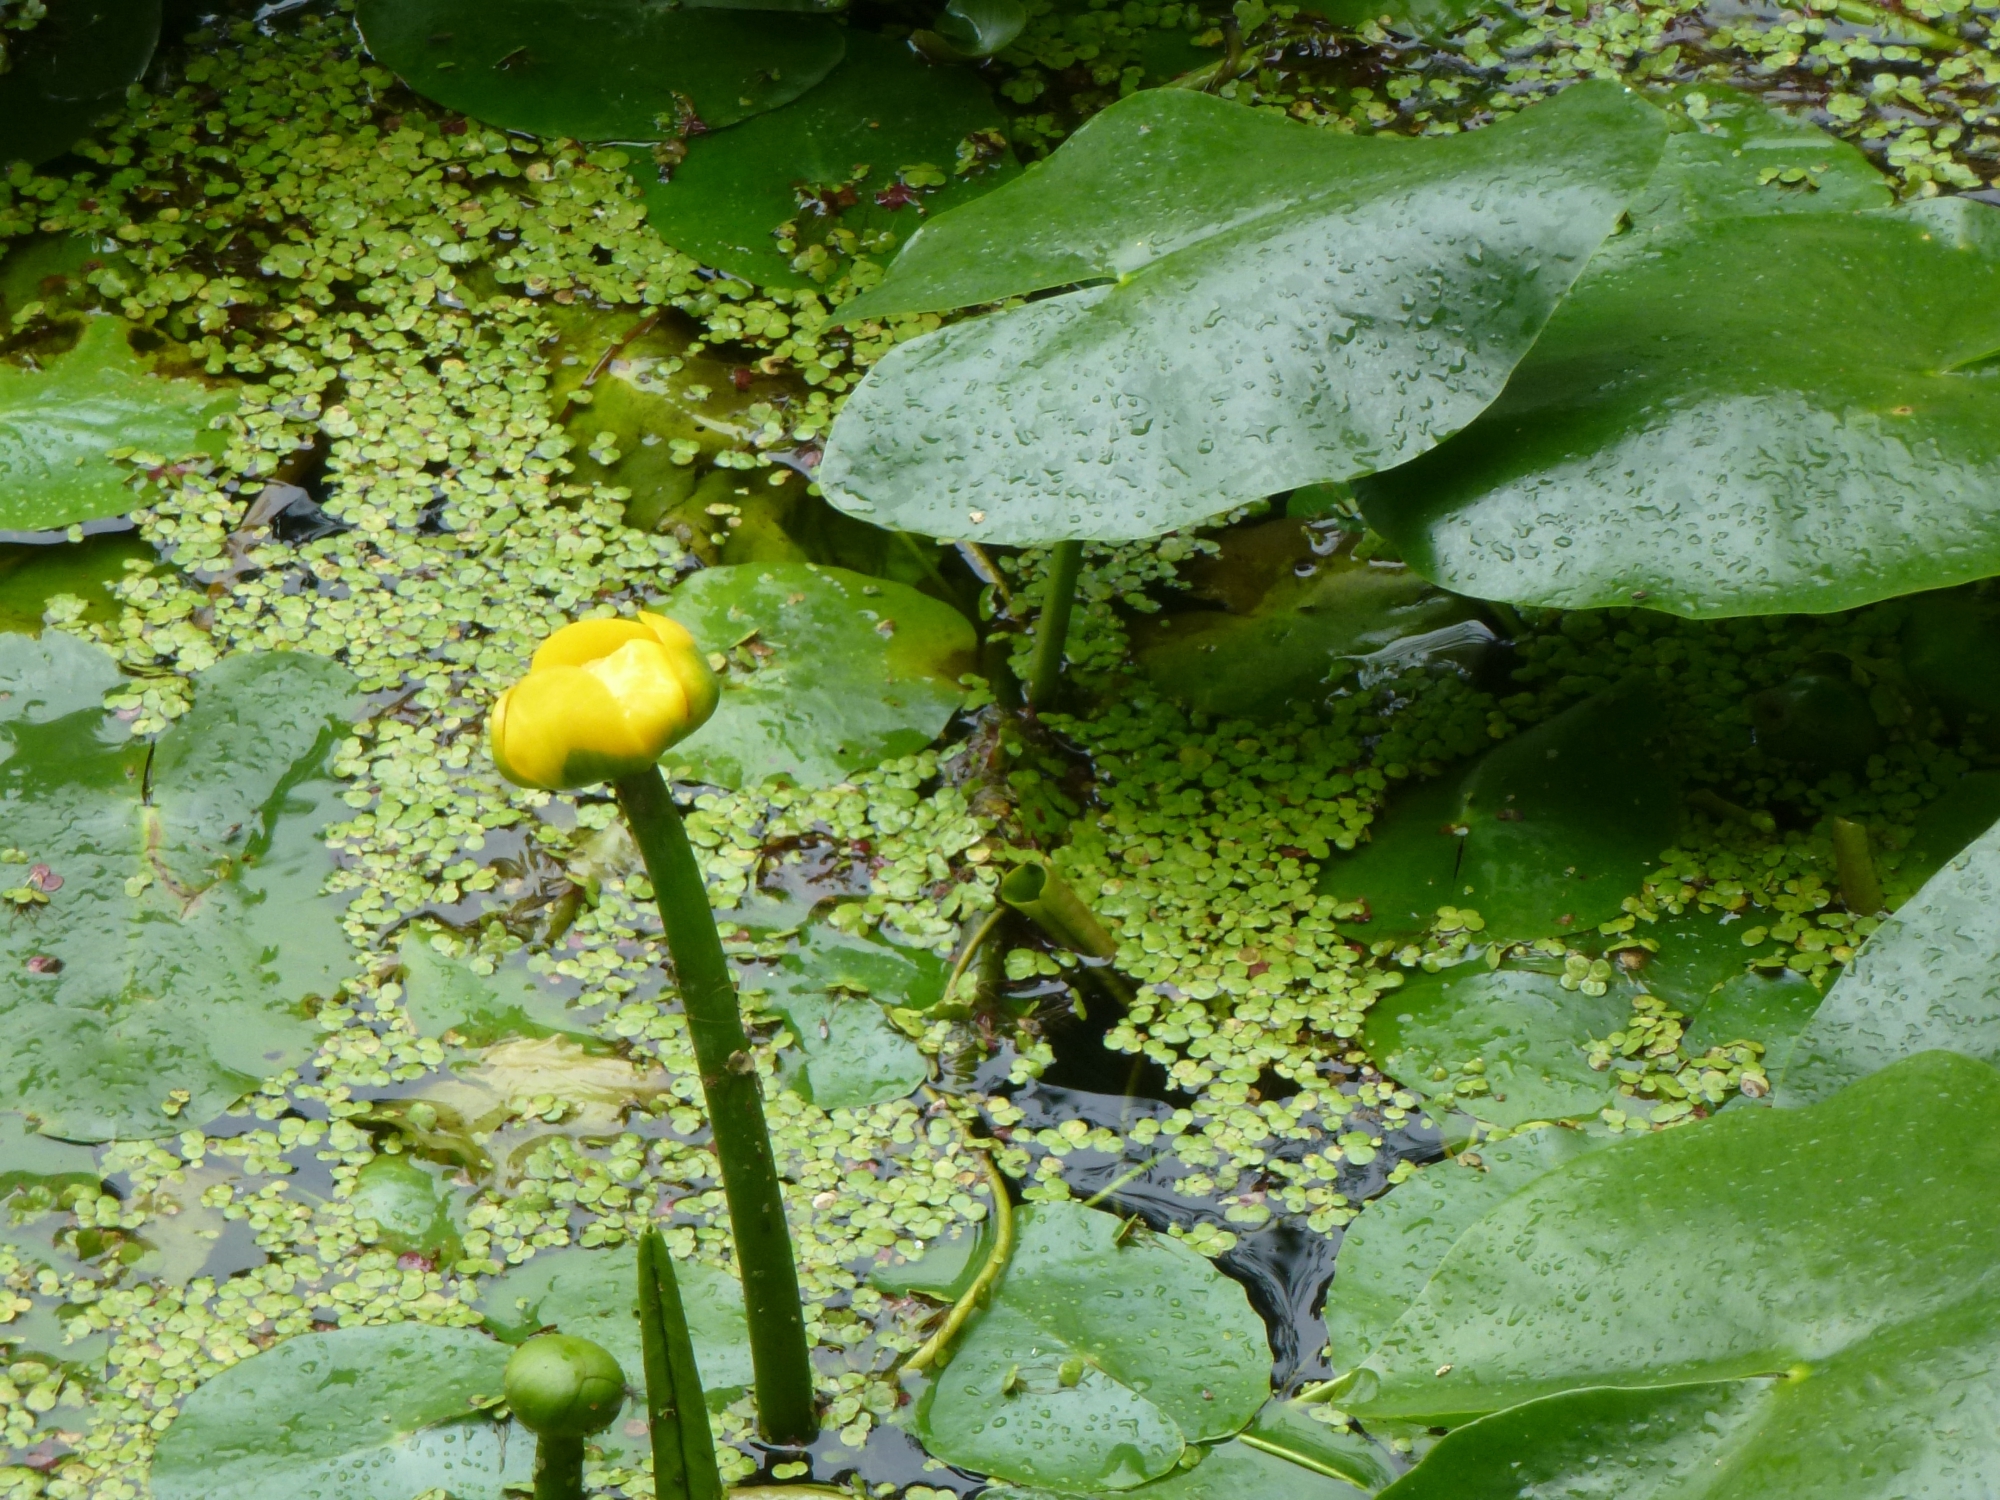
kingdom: Plantae
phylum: Tracheophyta
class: Magnoliopsida
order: Nymphaeales
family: Nymphaeaceae
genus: Nuphar
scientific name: Nuphar lutea
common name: Yellow water-lily
